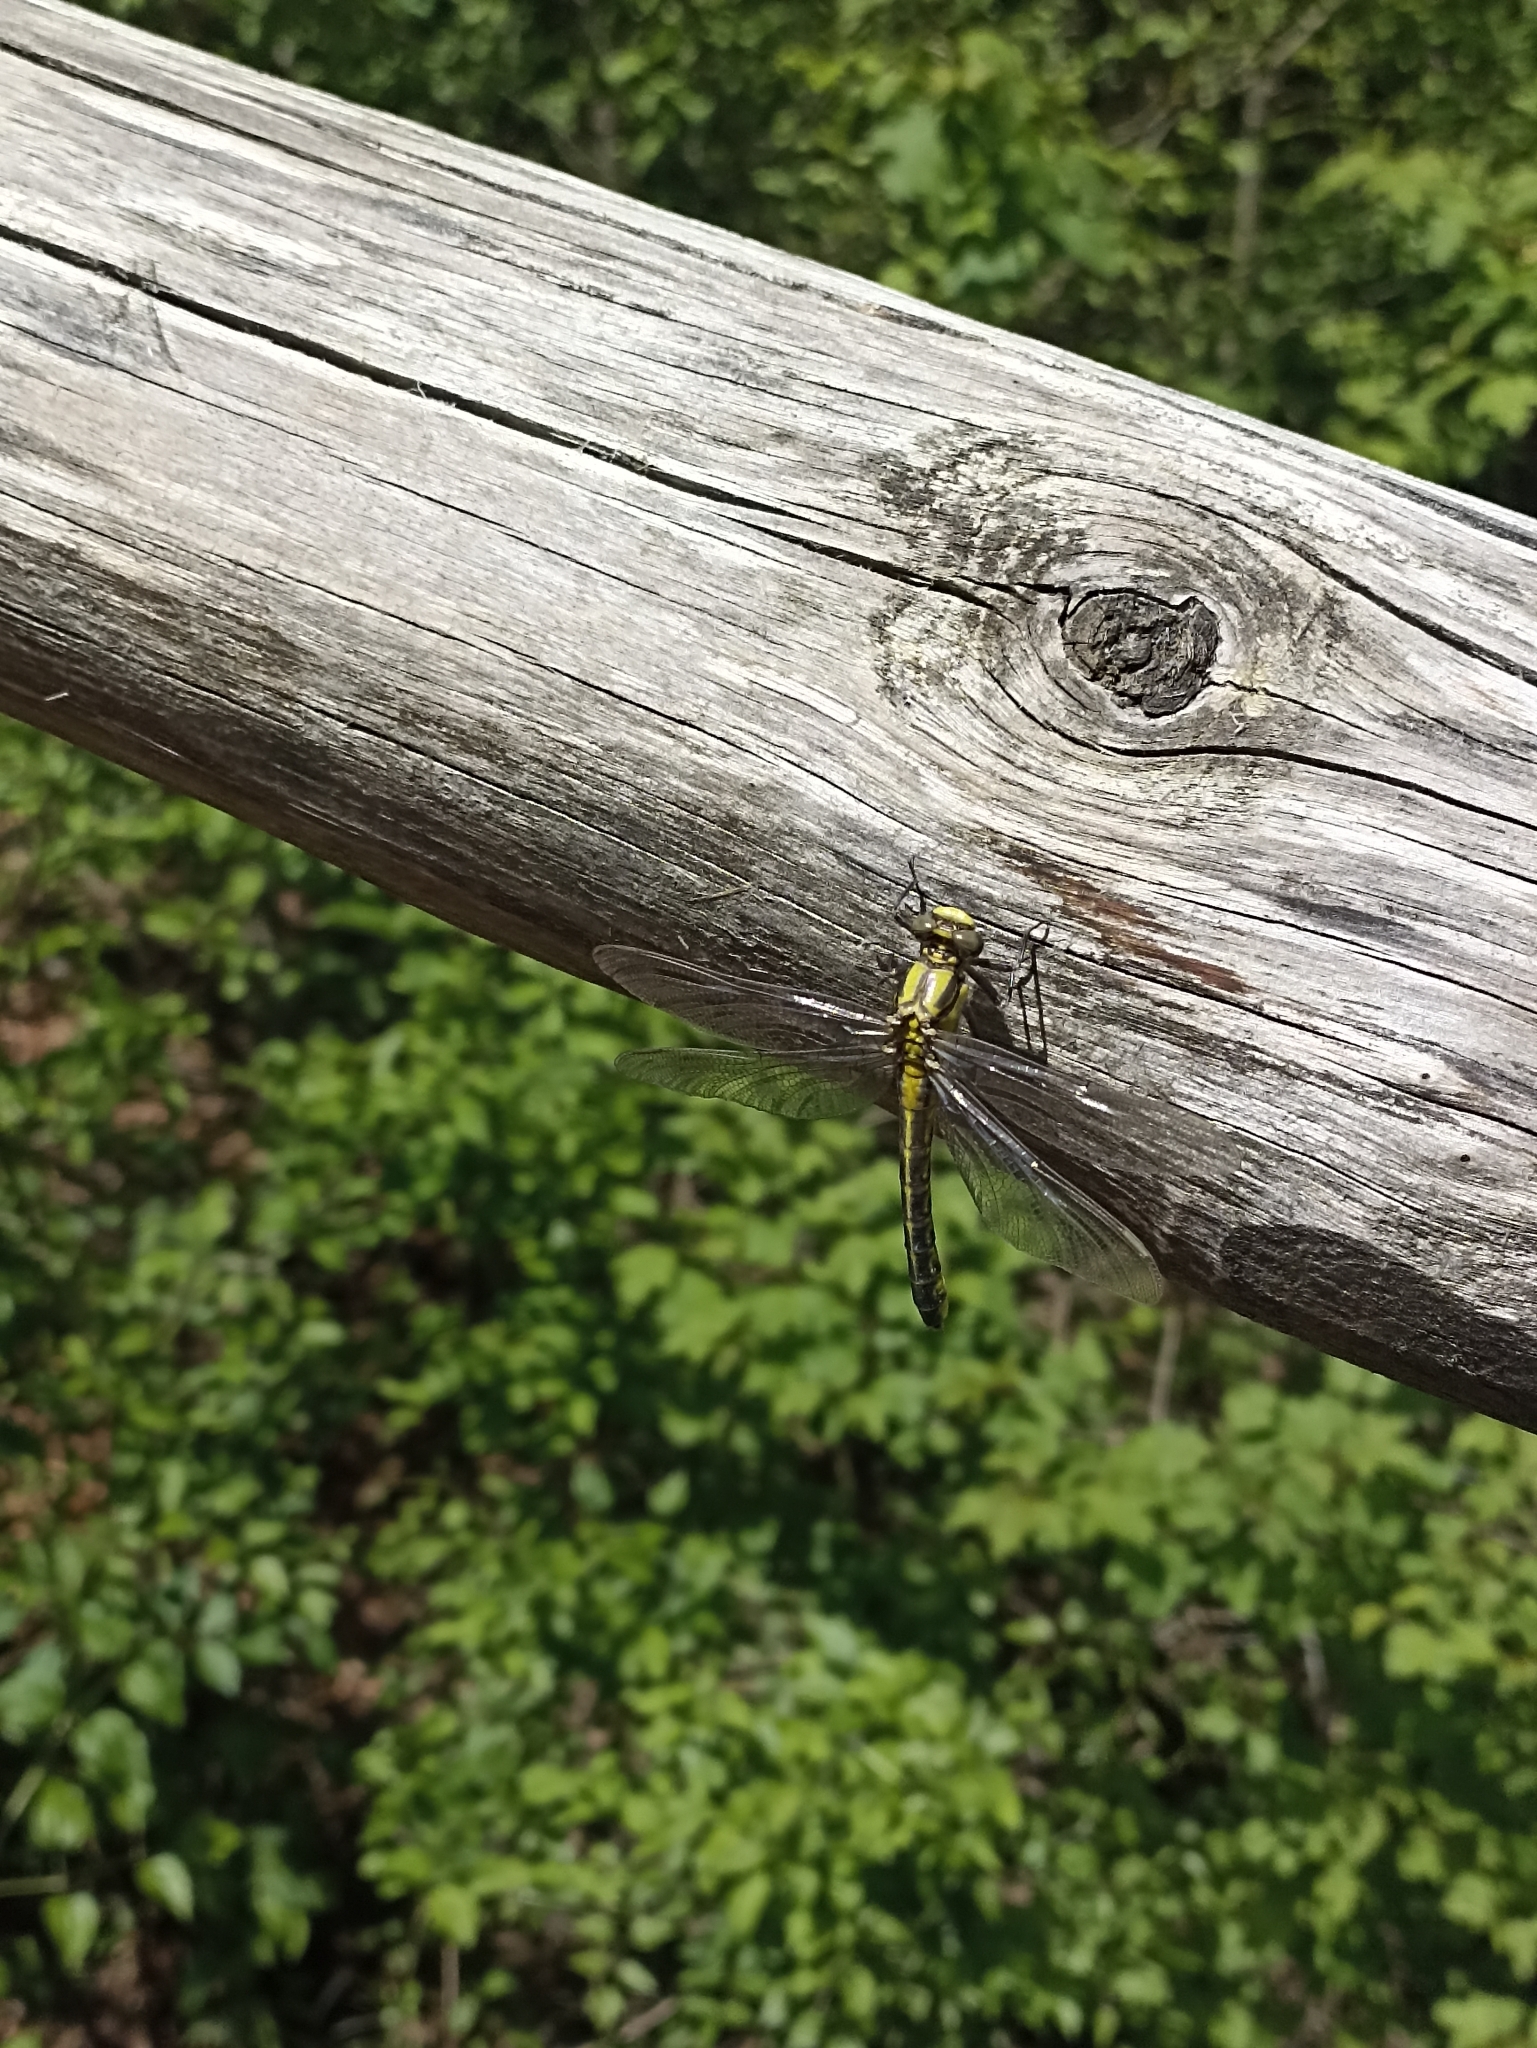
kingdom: Animalia
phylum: Arthropoda
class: Insecta
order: Odonata
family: Gomphidae
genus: Gomphus
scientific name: Gomphus vulgatissimus
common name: Club-tailed dragonfly
